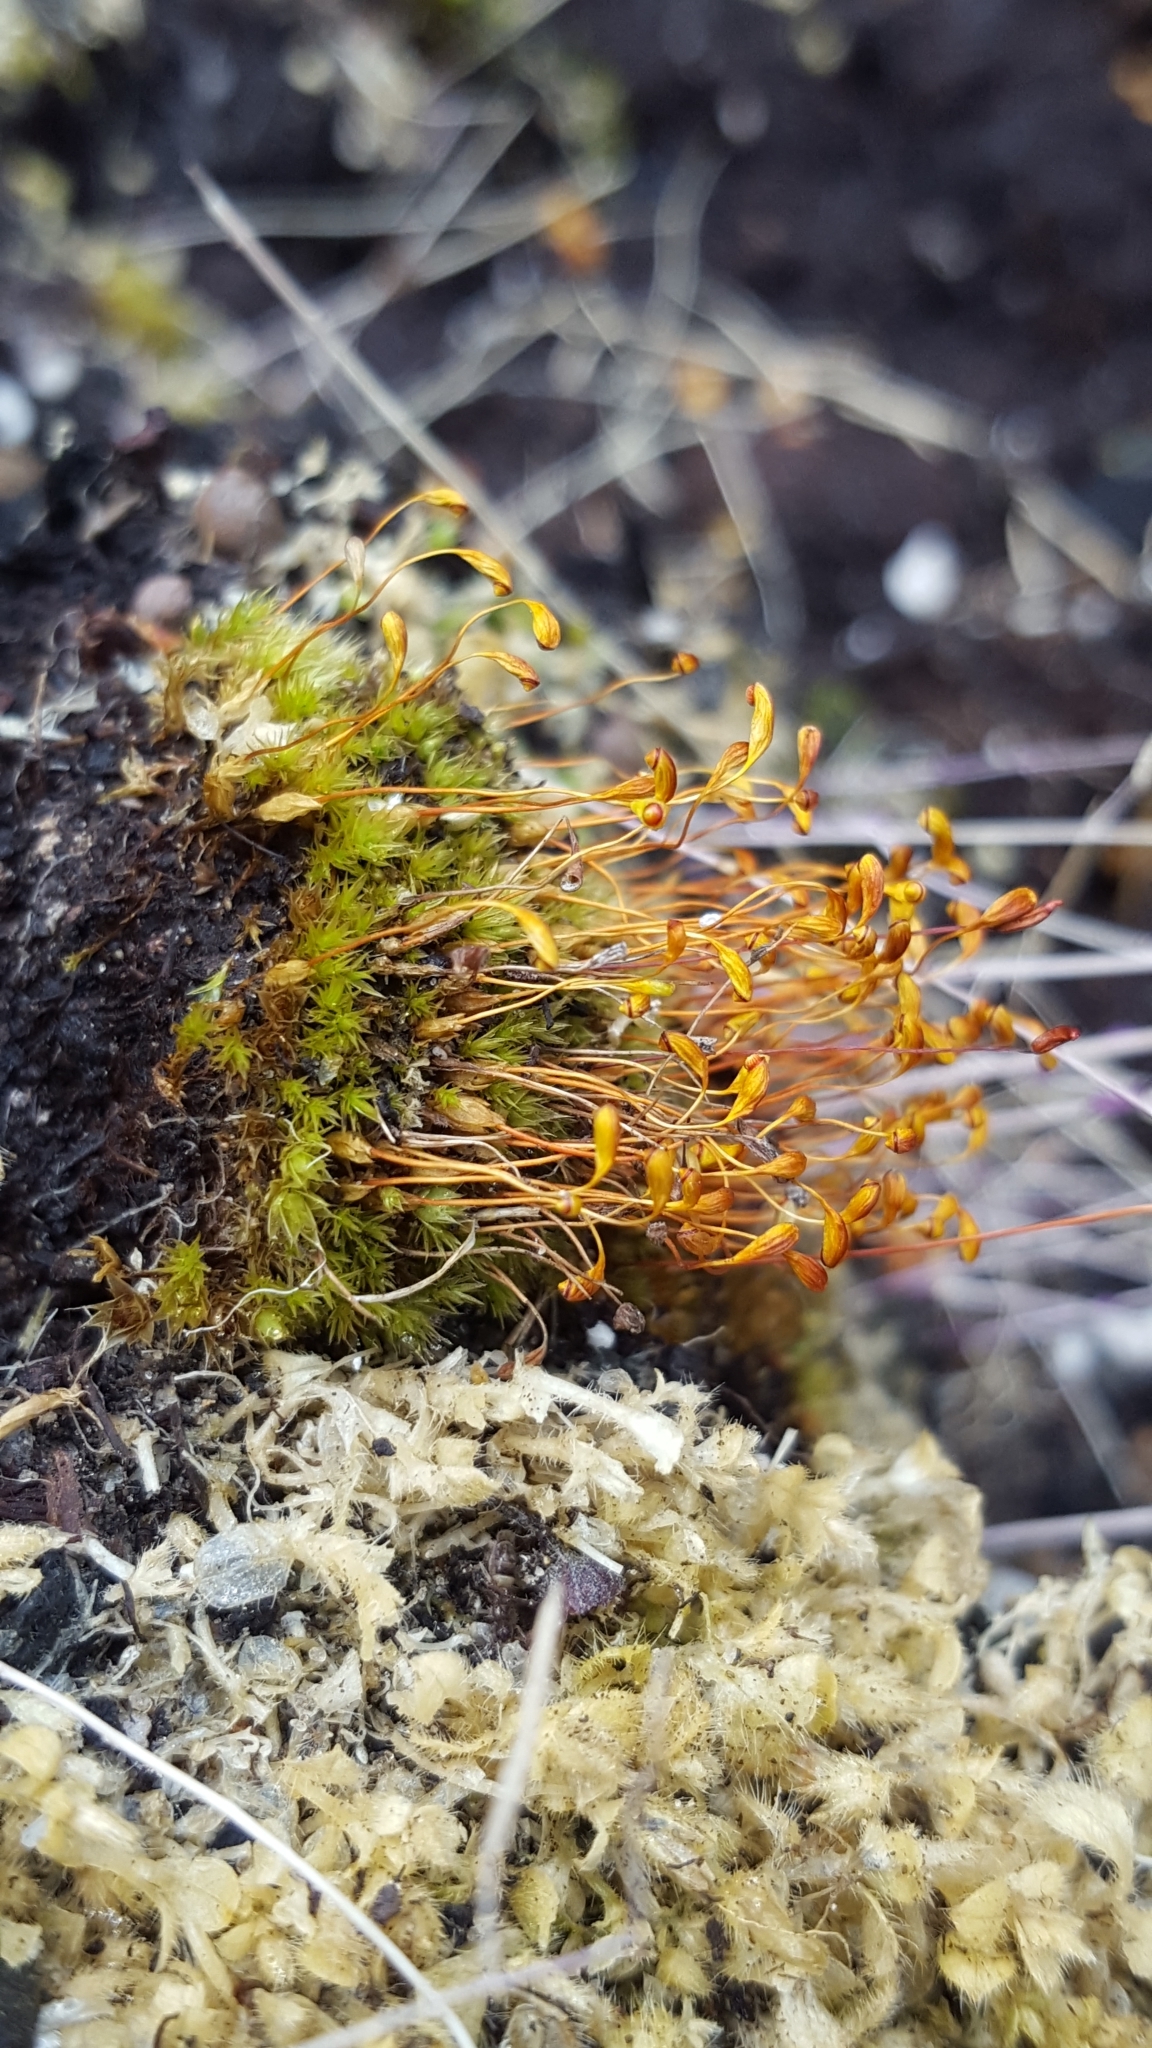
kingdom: Plantae
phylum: Bryophyta
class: Bryopsida
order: Funariales
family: Funariaceae
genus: Funaria
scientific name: Funaria hygrometrica
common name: Common cord moss
